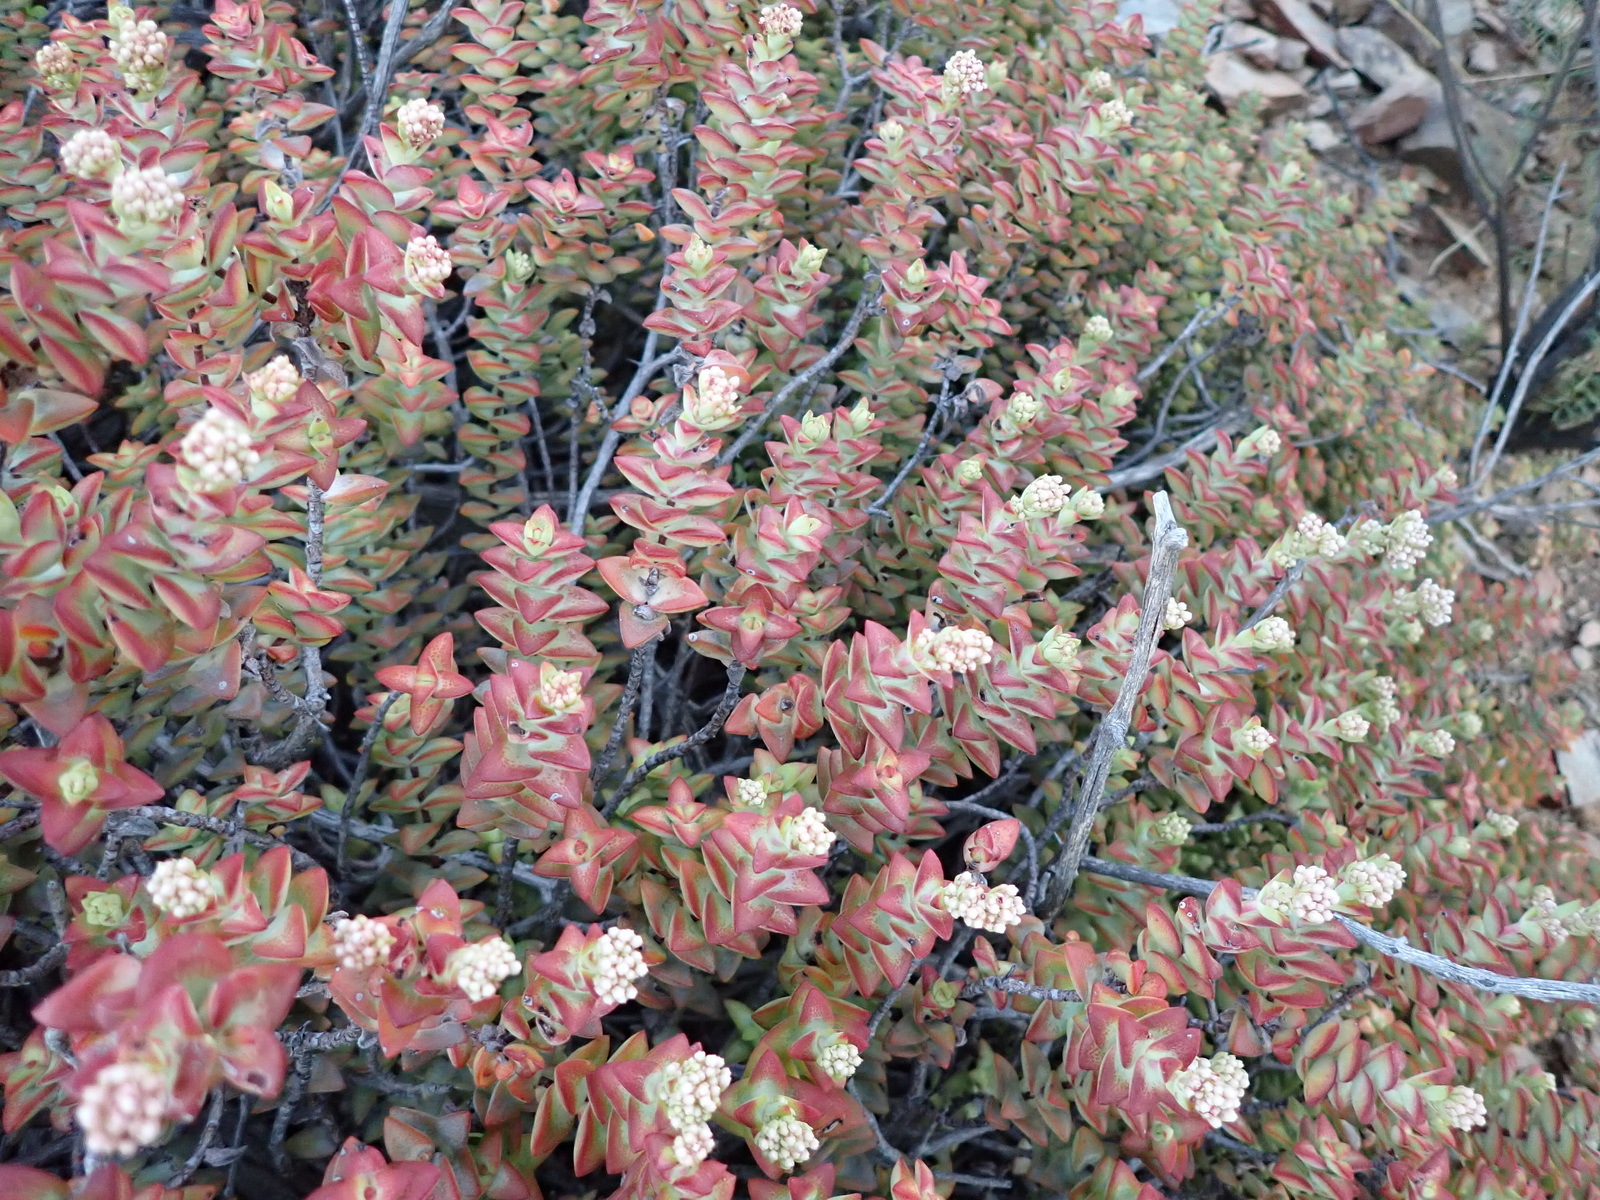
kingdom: Plantae
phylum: Tracheophyta
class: Magnoliopsida
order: Saxifragales
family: Crassulaceae
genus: Crassula
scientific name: Crassula rupestris
